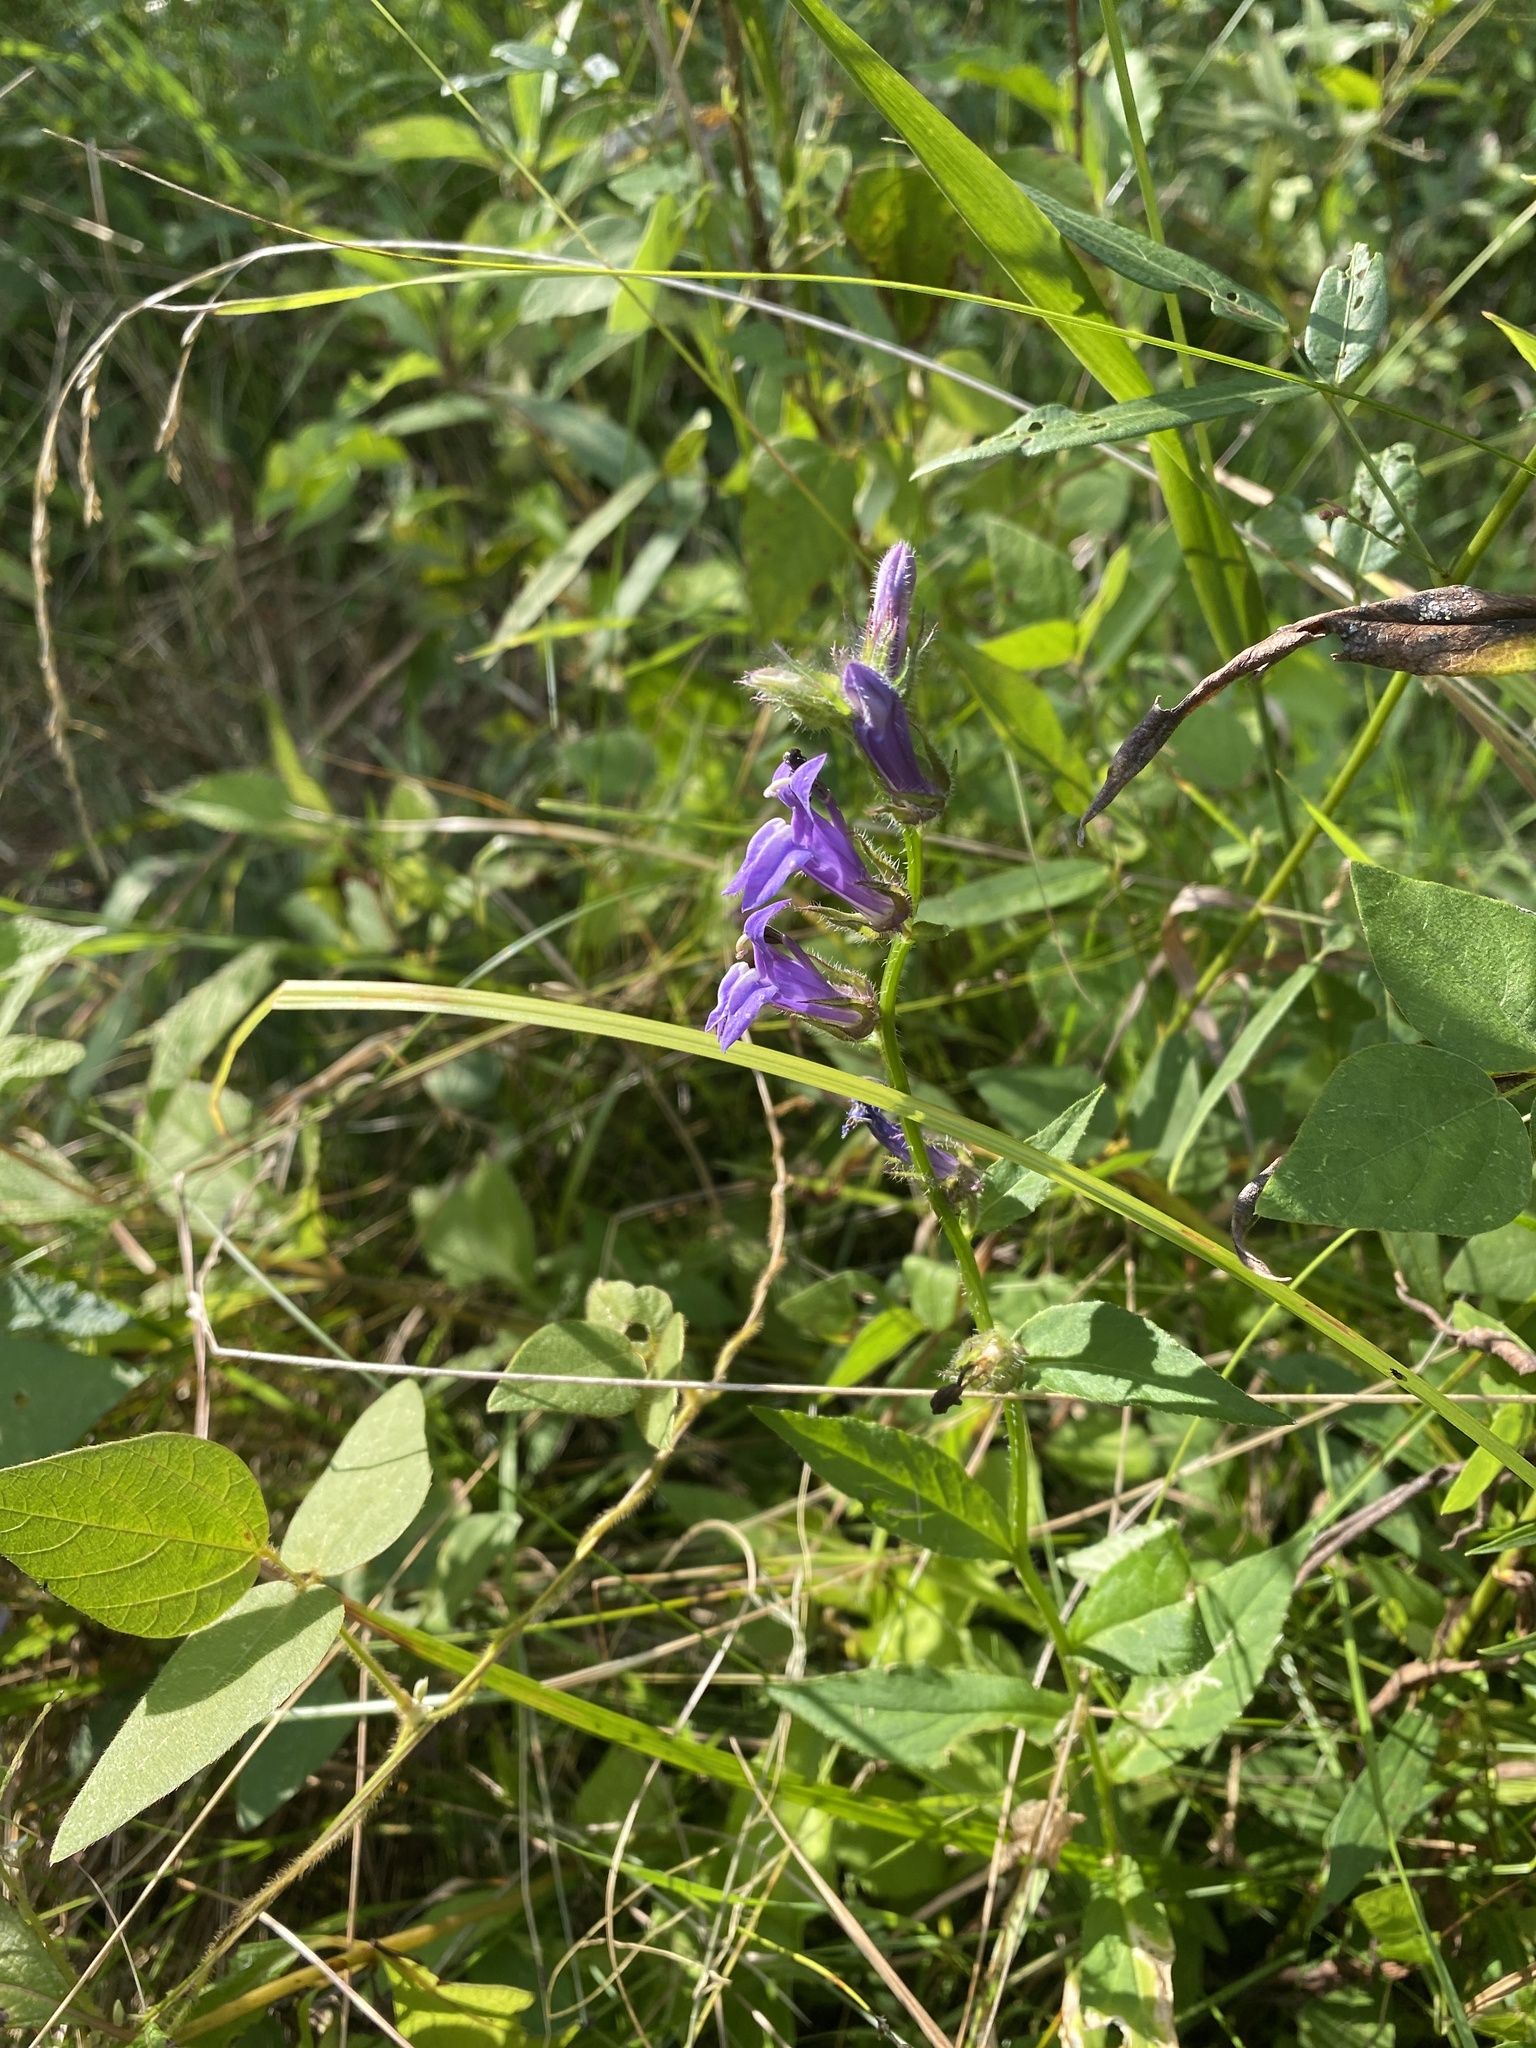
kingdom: Plantae
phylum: Tracheophyta
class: Magnoliopsida
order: Asterales
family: Campanulaceae
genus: Lobelia
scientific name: Lobelia siphilitica
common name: Great lobelia
